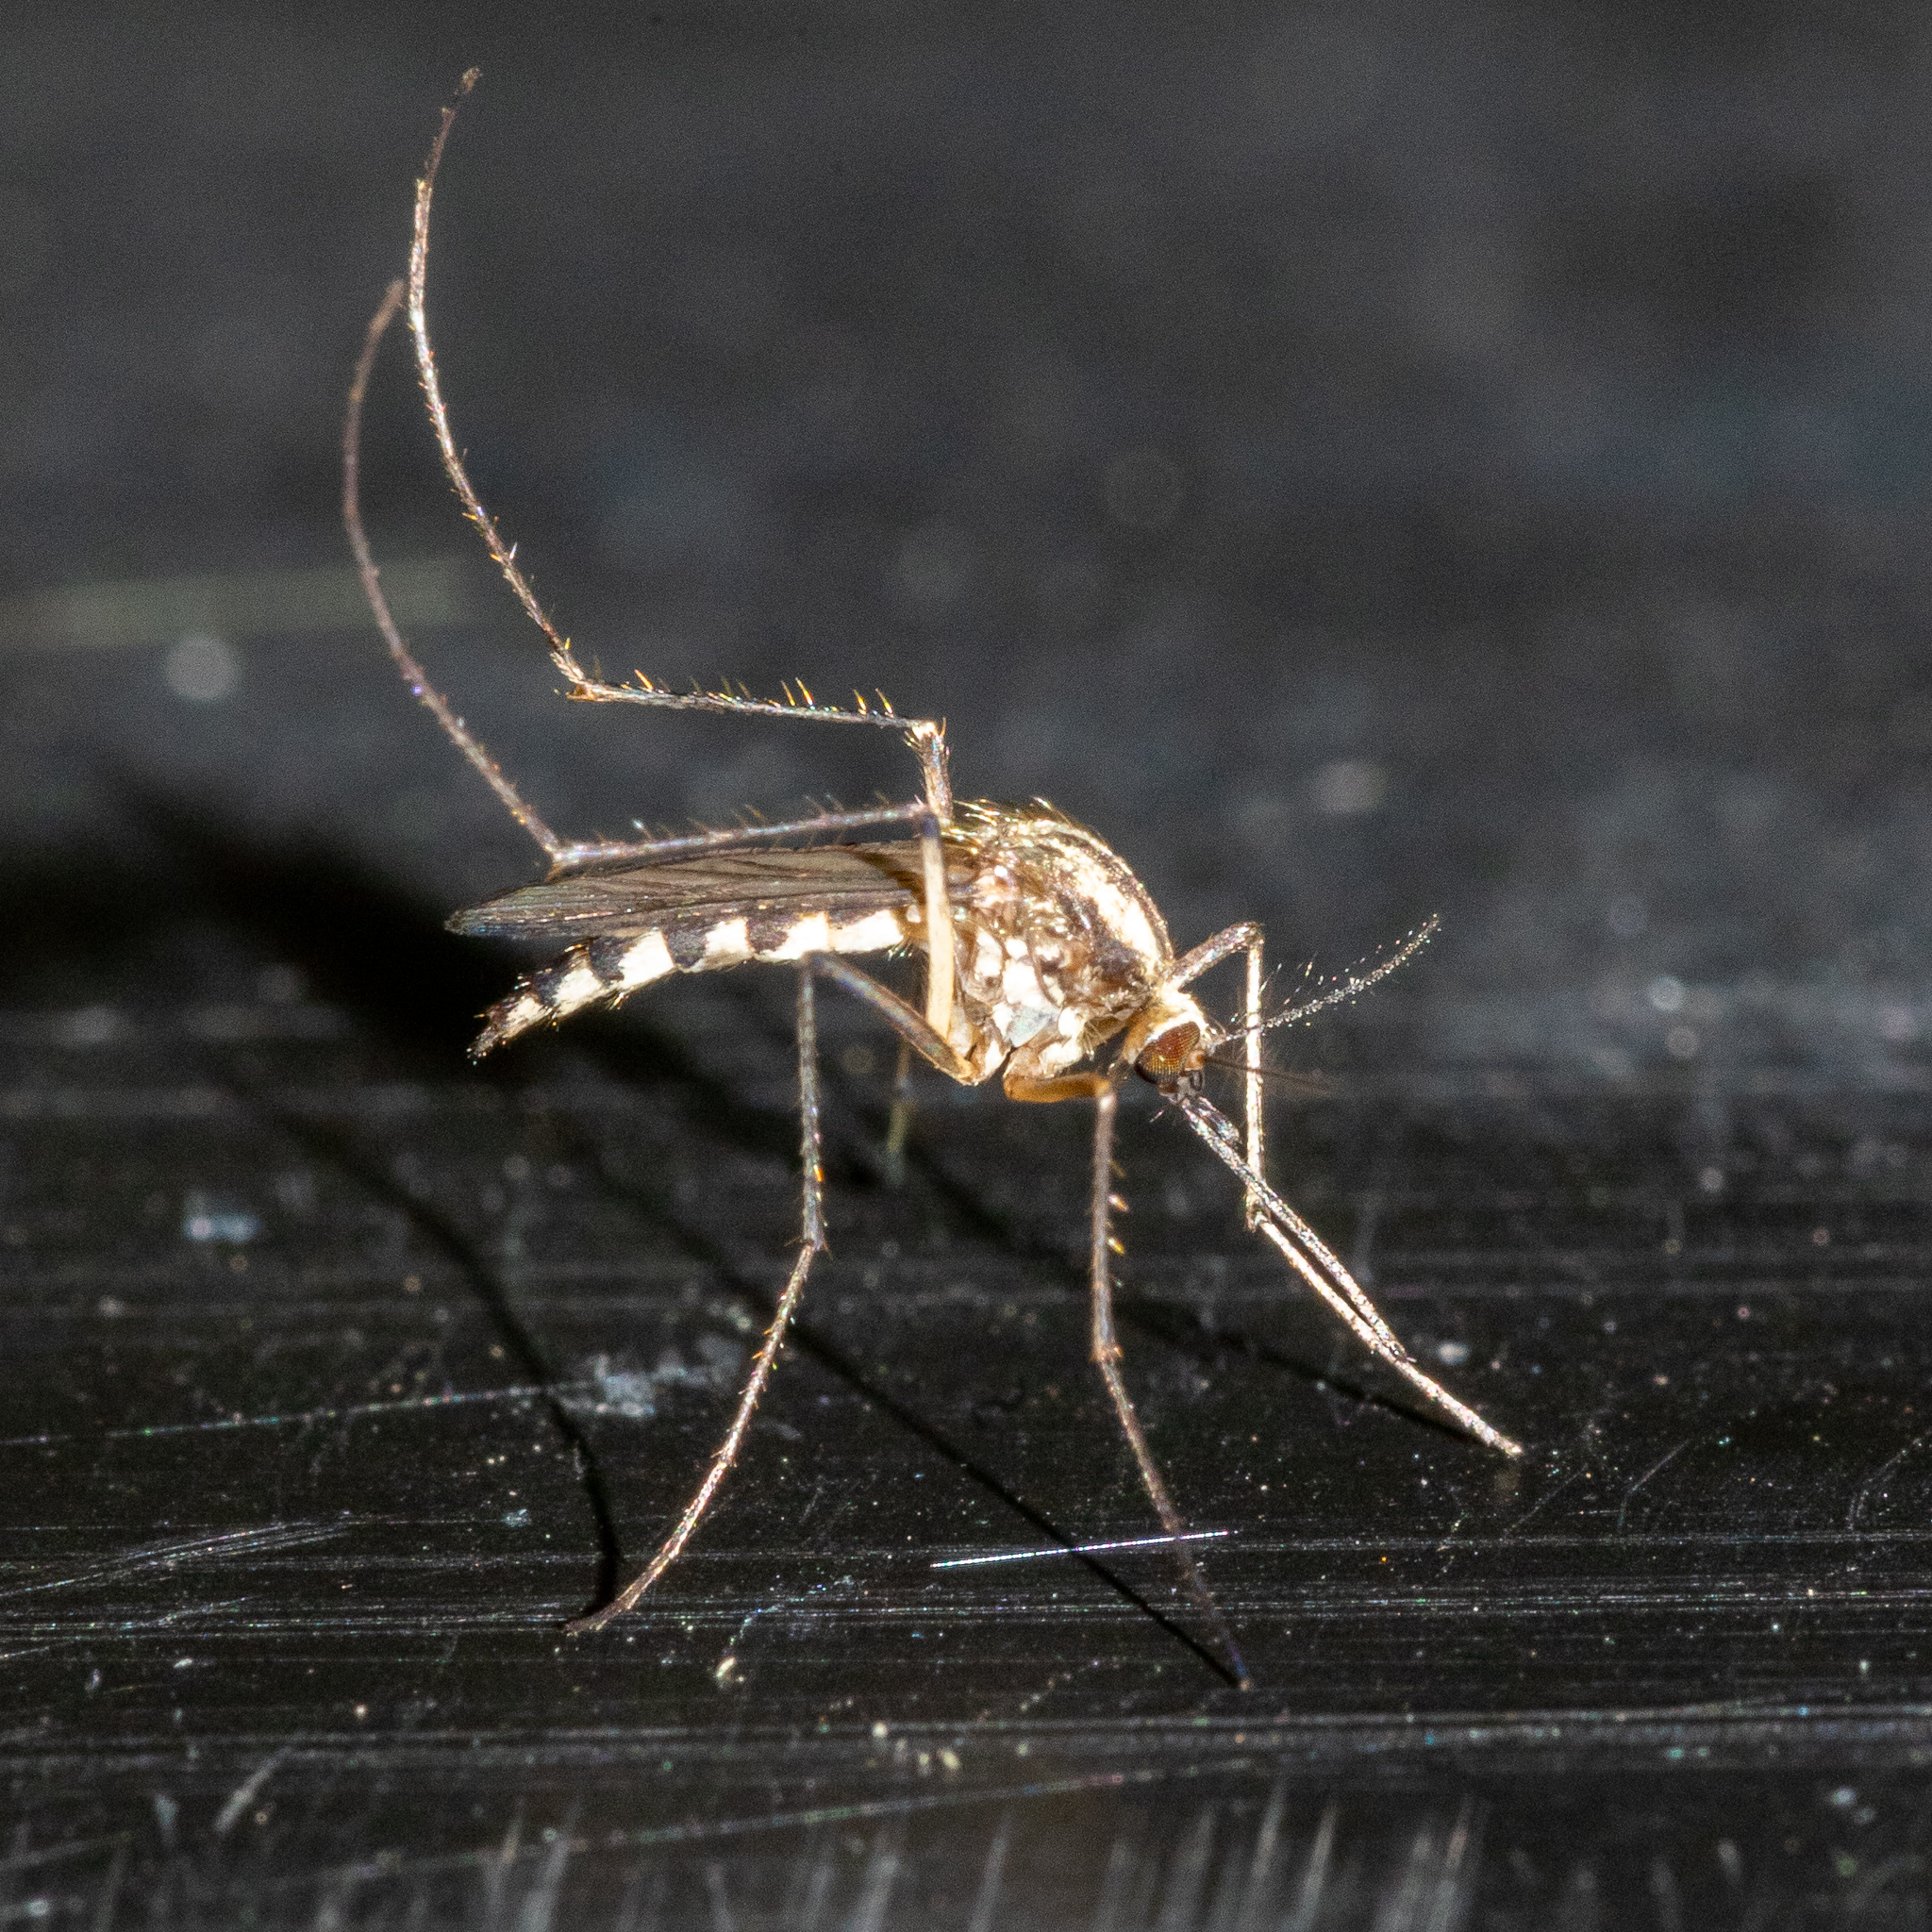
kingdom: Animalia
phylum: Arthropoda
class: Insecta
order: Diptera
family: Culicidae
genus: Aedes
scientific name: Aedes trivittatus
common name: Plains floodwater mosquito
